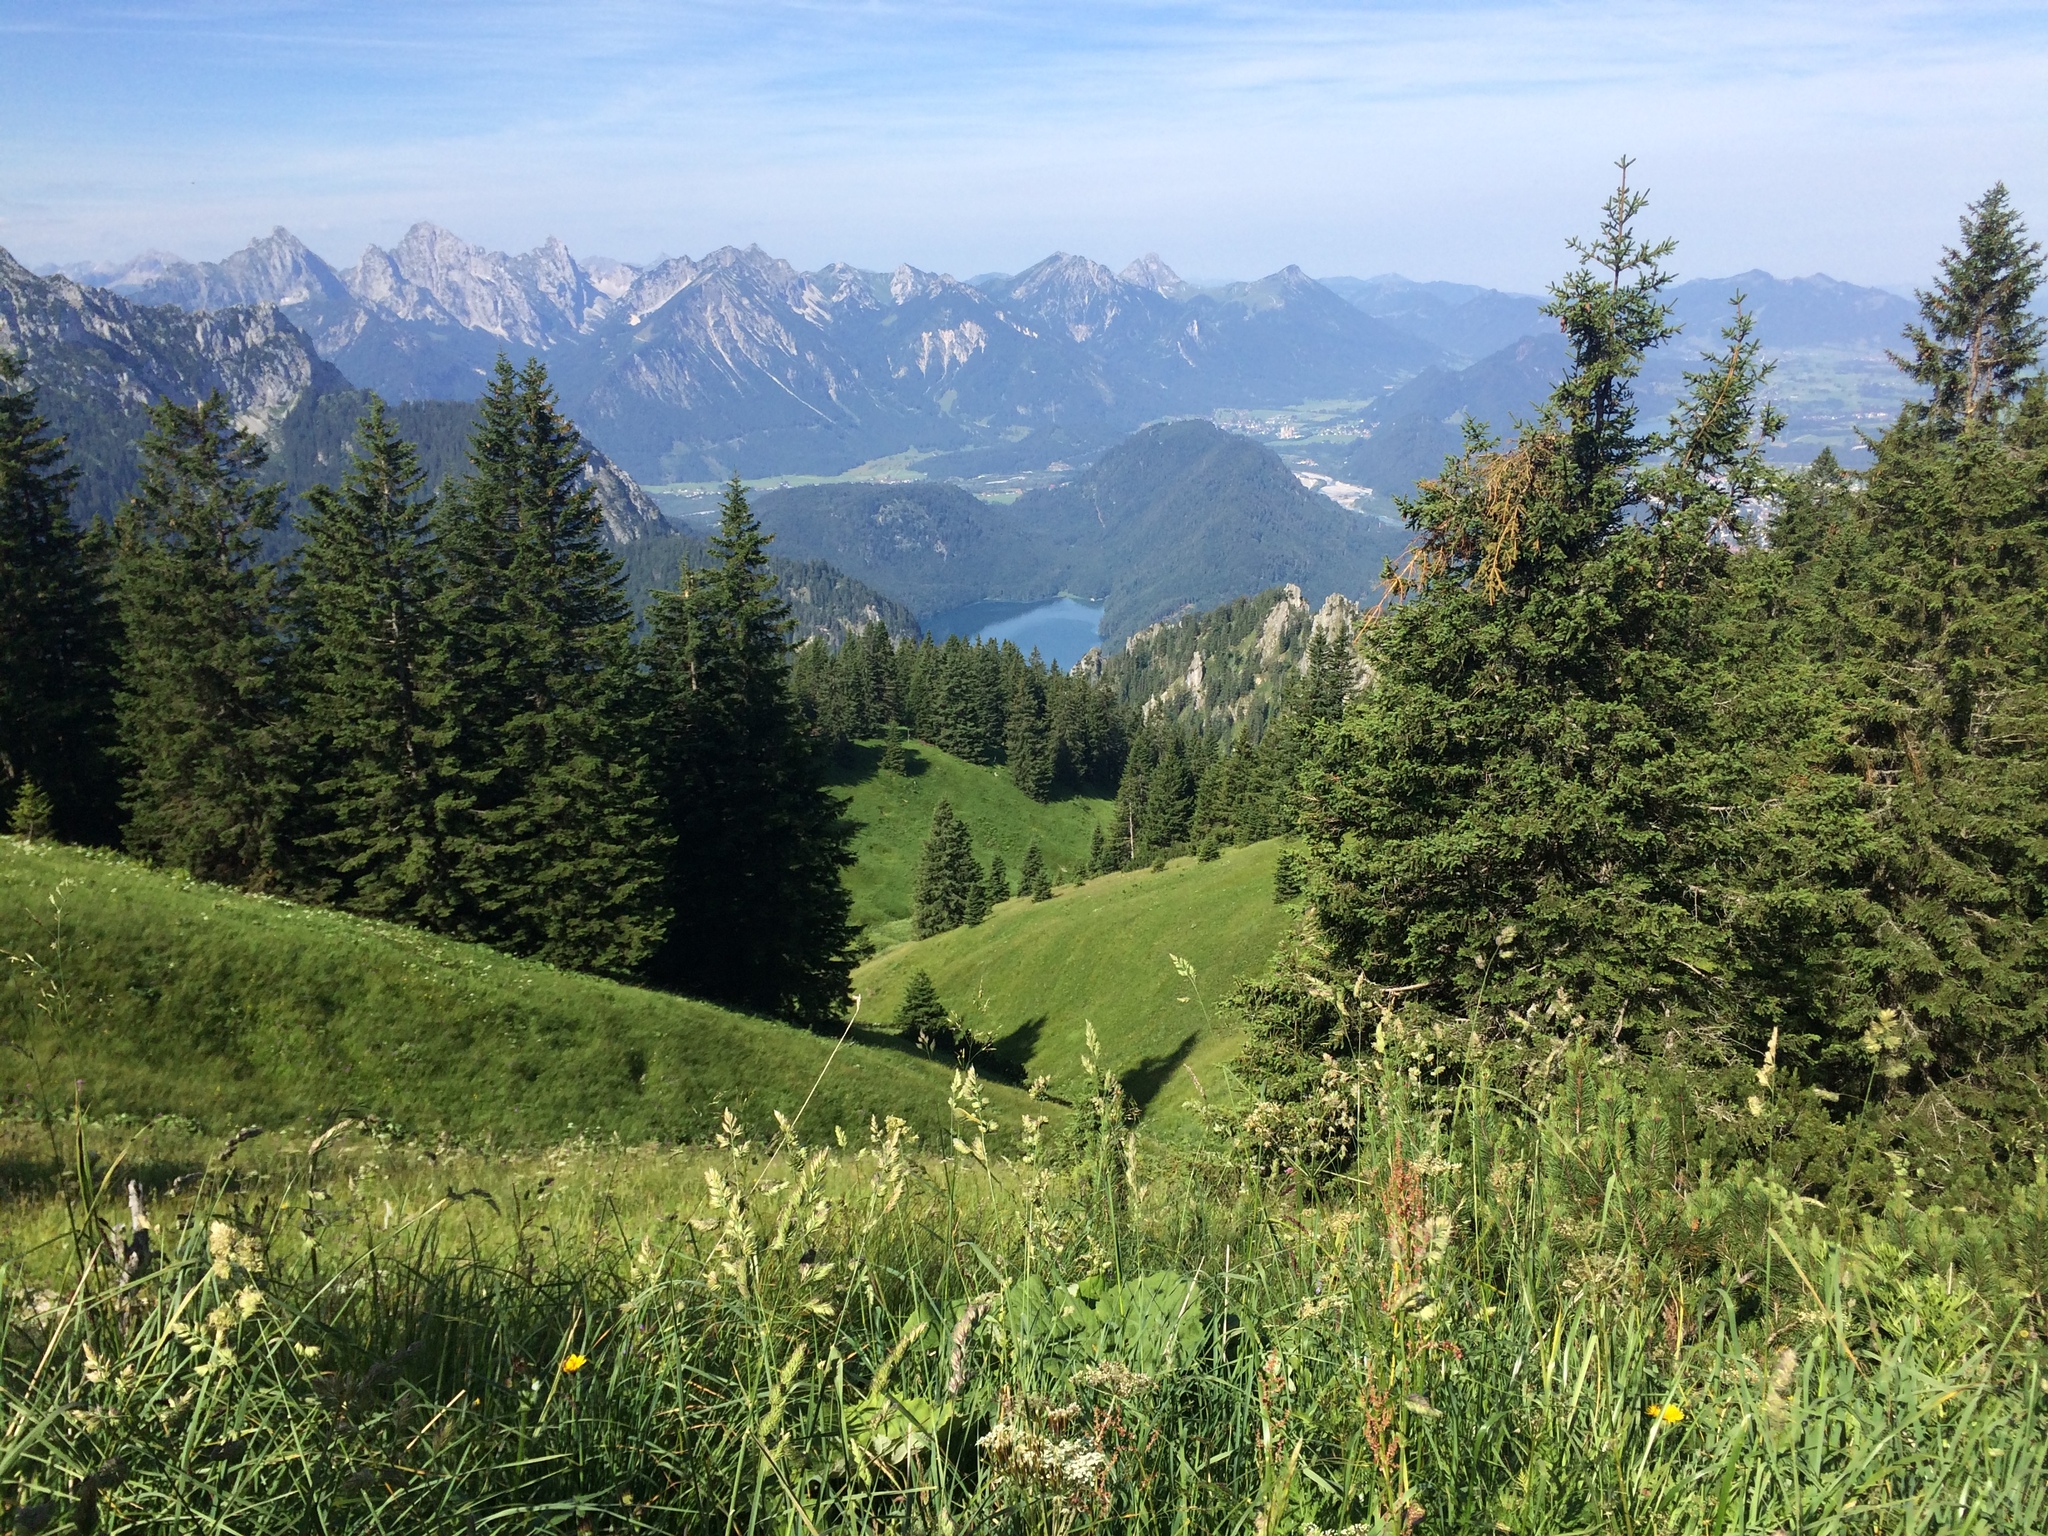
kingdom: Plantae
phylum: Tracheophyta
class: Liliopsida
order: Poales
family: Poaceae
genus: Dactylis
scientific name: Dactylis glomerata
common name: Orchardgrass
